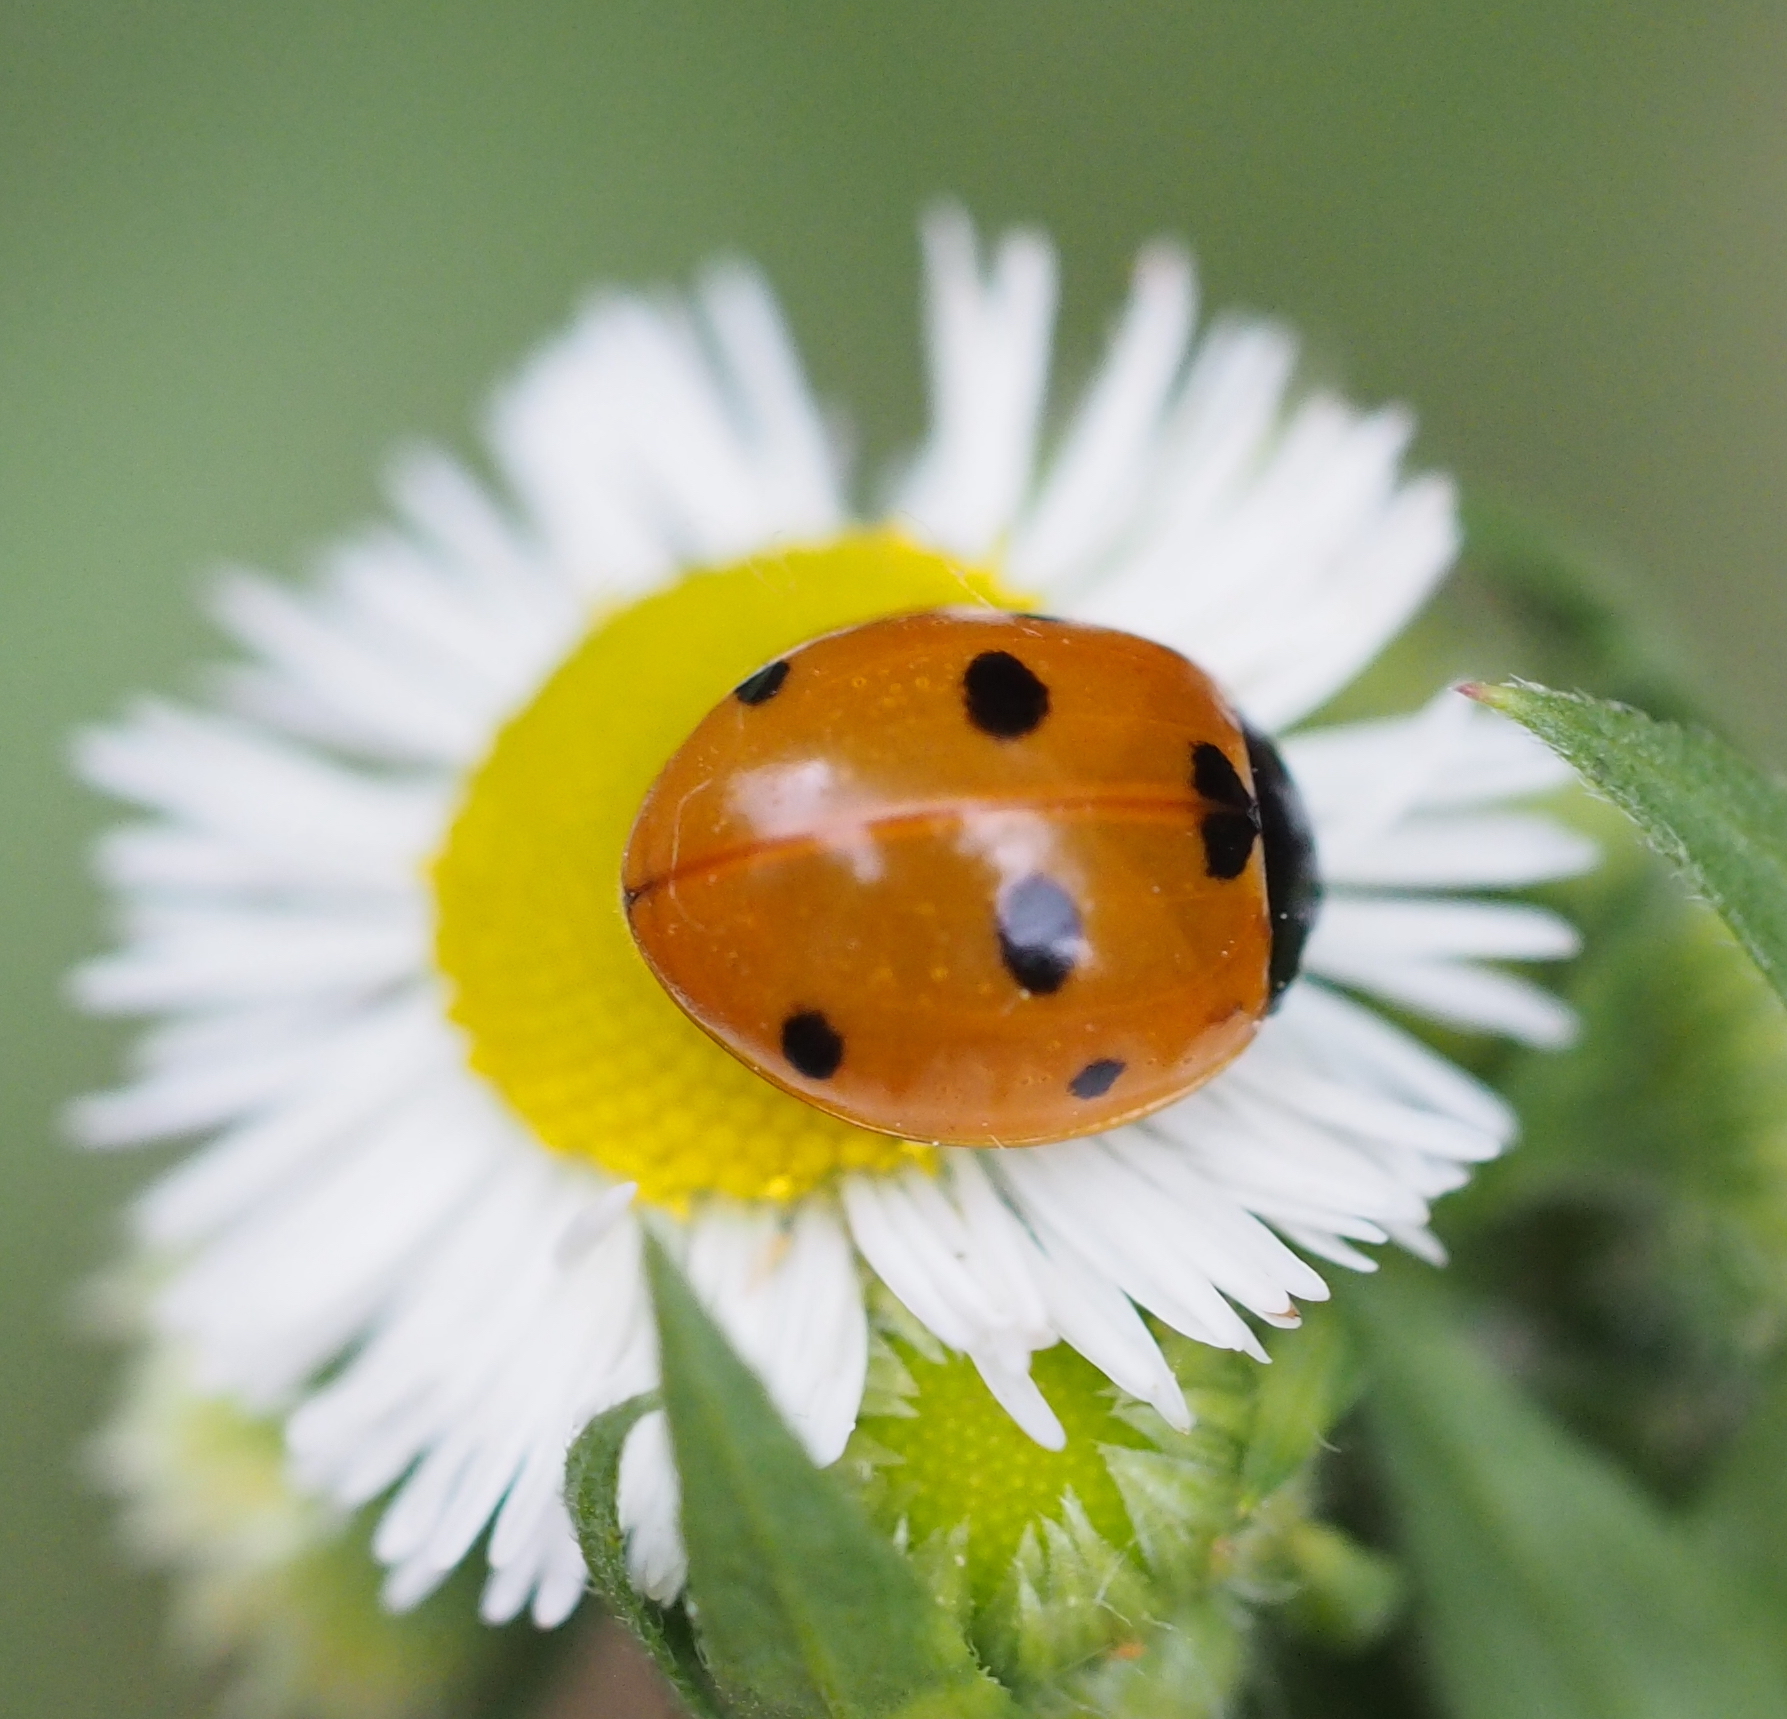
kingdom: Animalia
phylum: Arthropoda
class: Insecta
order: Coleoptera
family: Coccinellidae
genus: Coccinella
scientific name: Coccinella septempunctata
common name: Sevenspotted lady beetle
